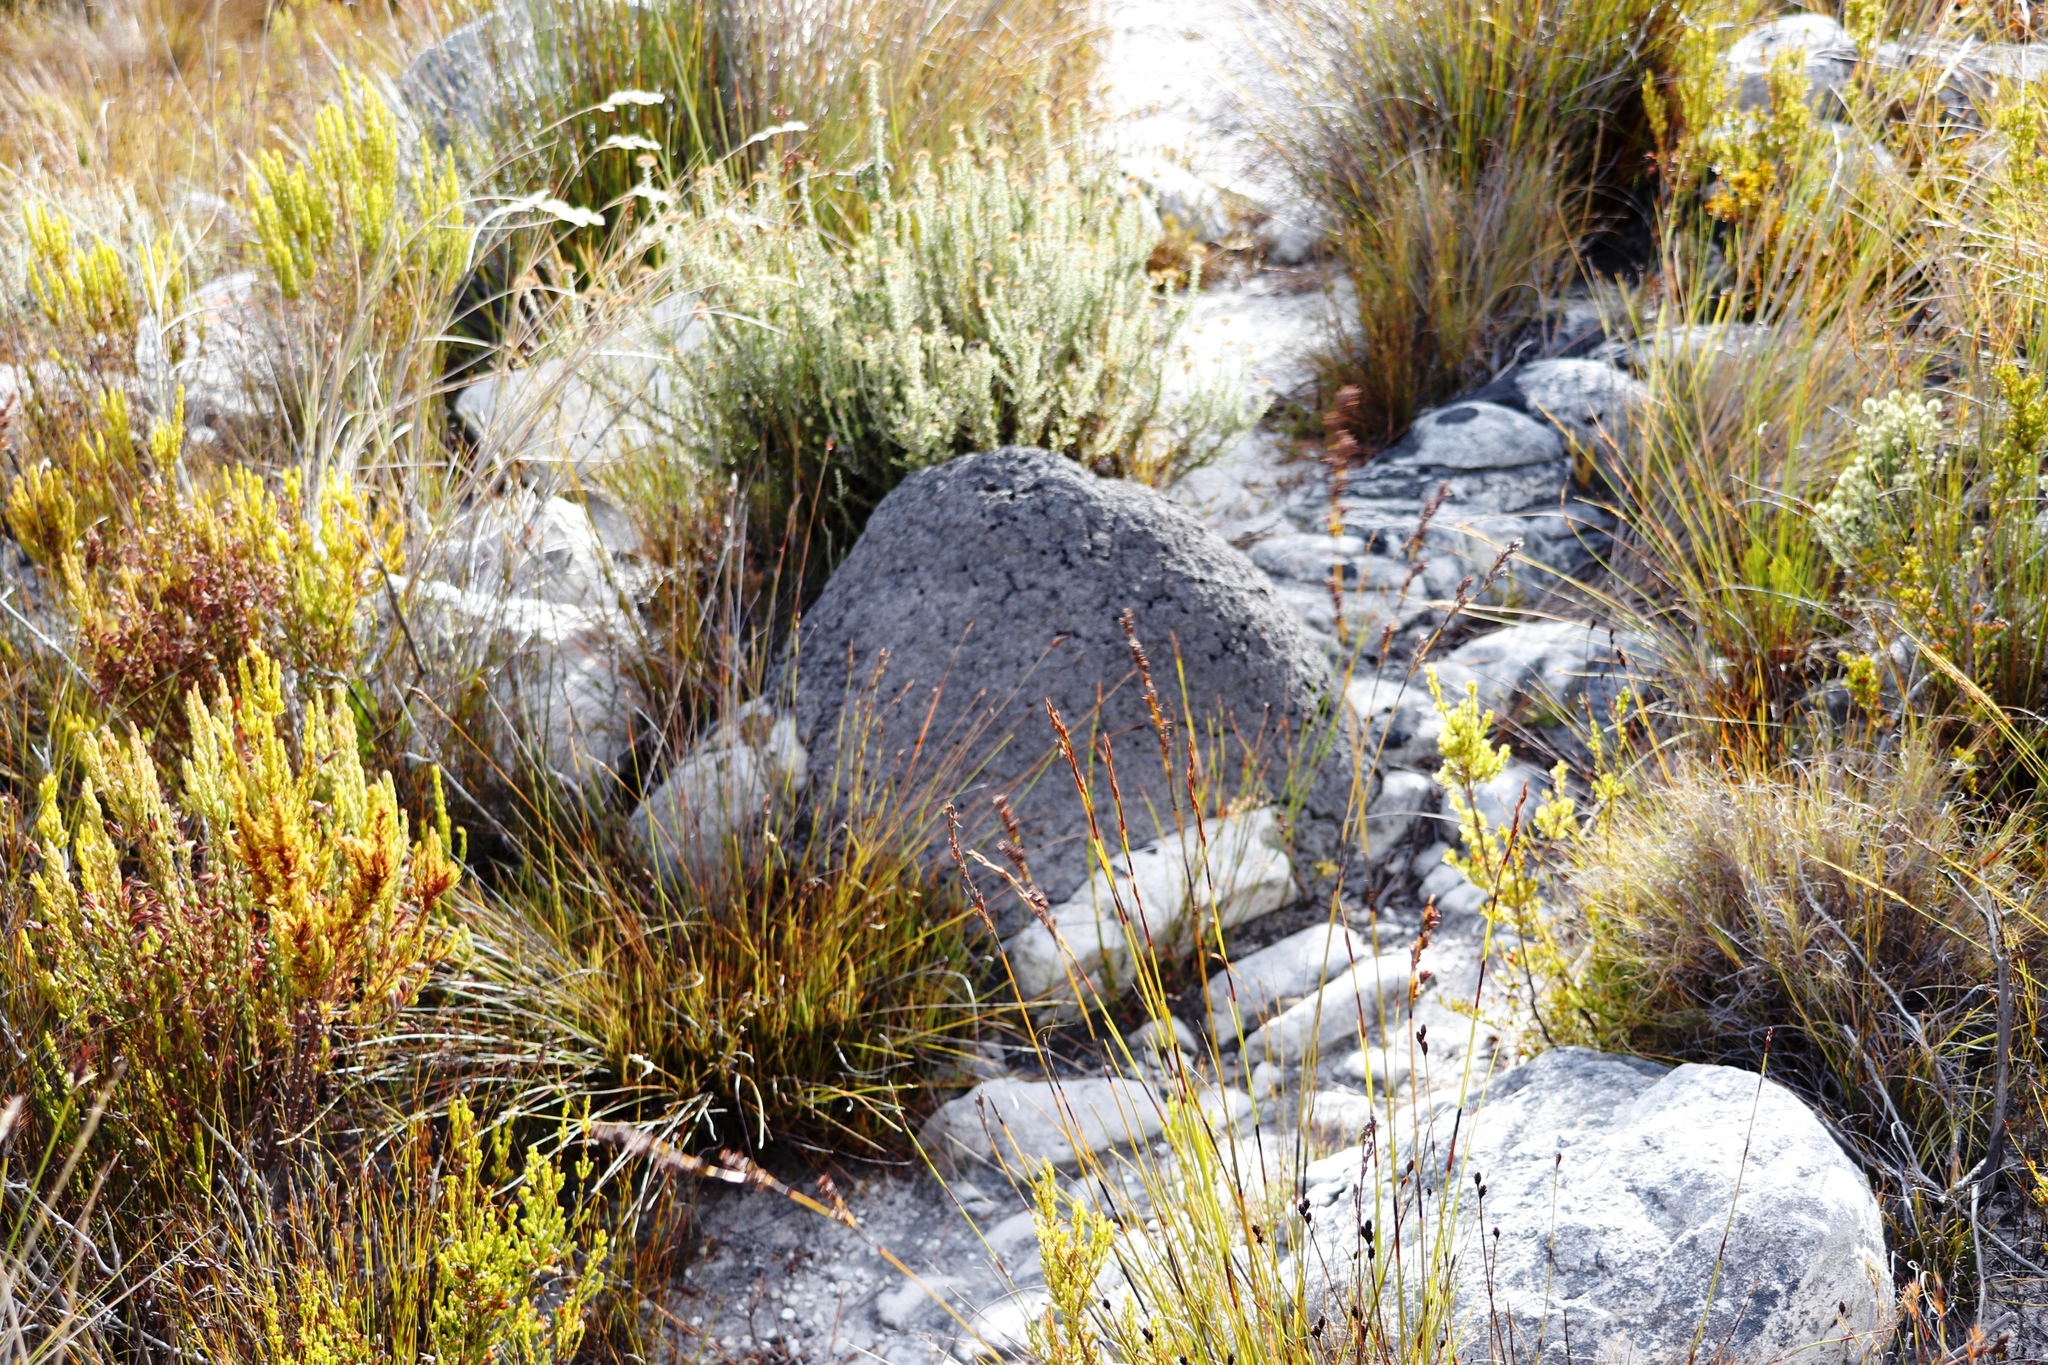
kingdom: Animalia
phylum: Arthropoda
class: Insecta
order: Blattodea
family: Termitidae
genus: Amitermes
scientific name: Amitermes hastatus
